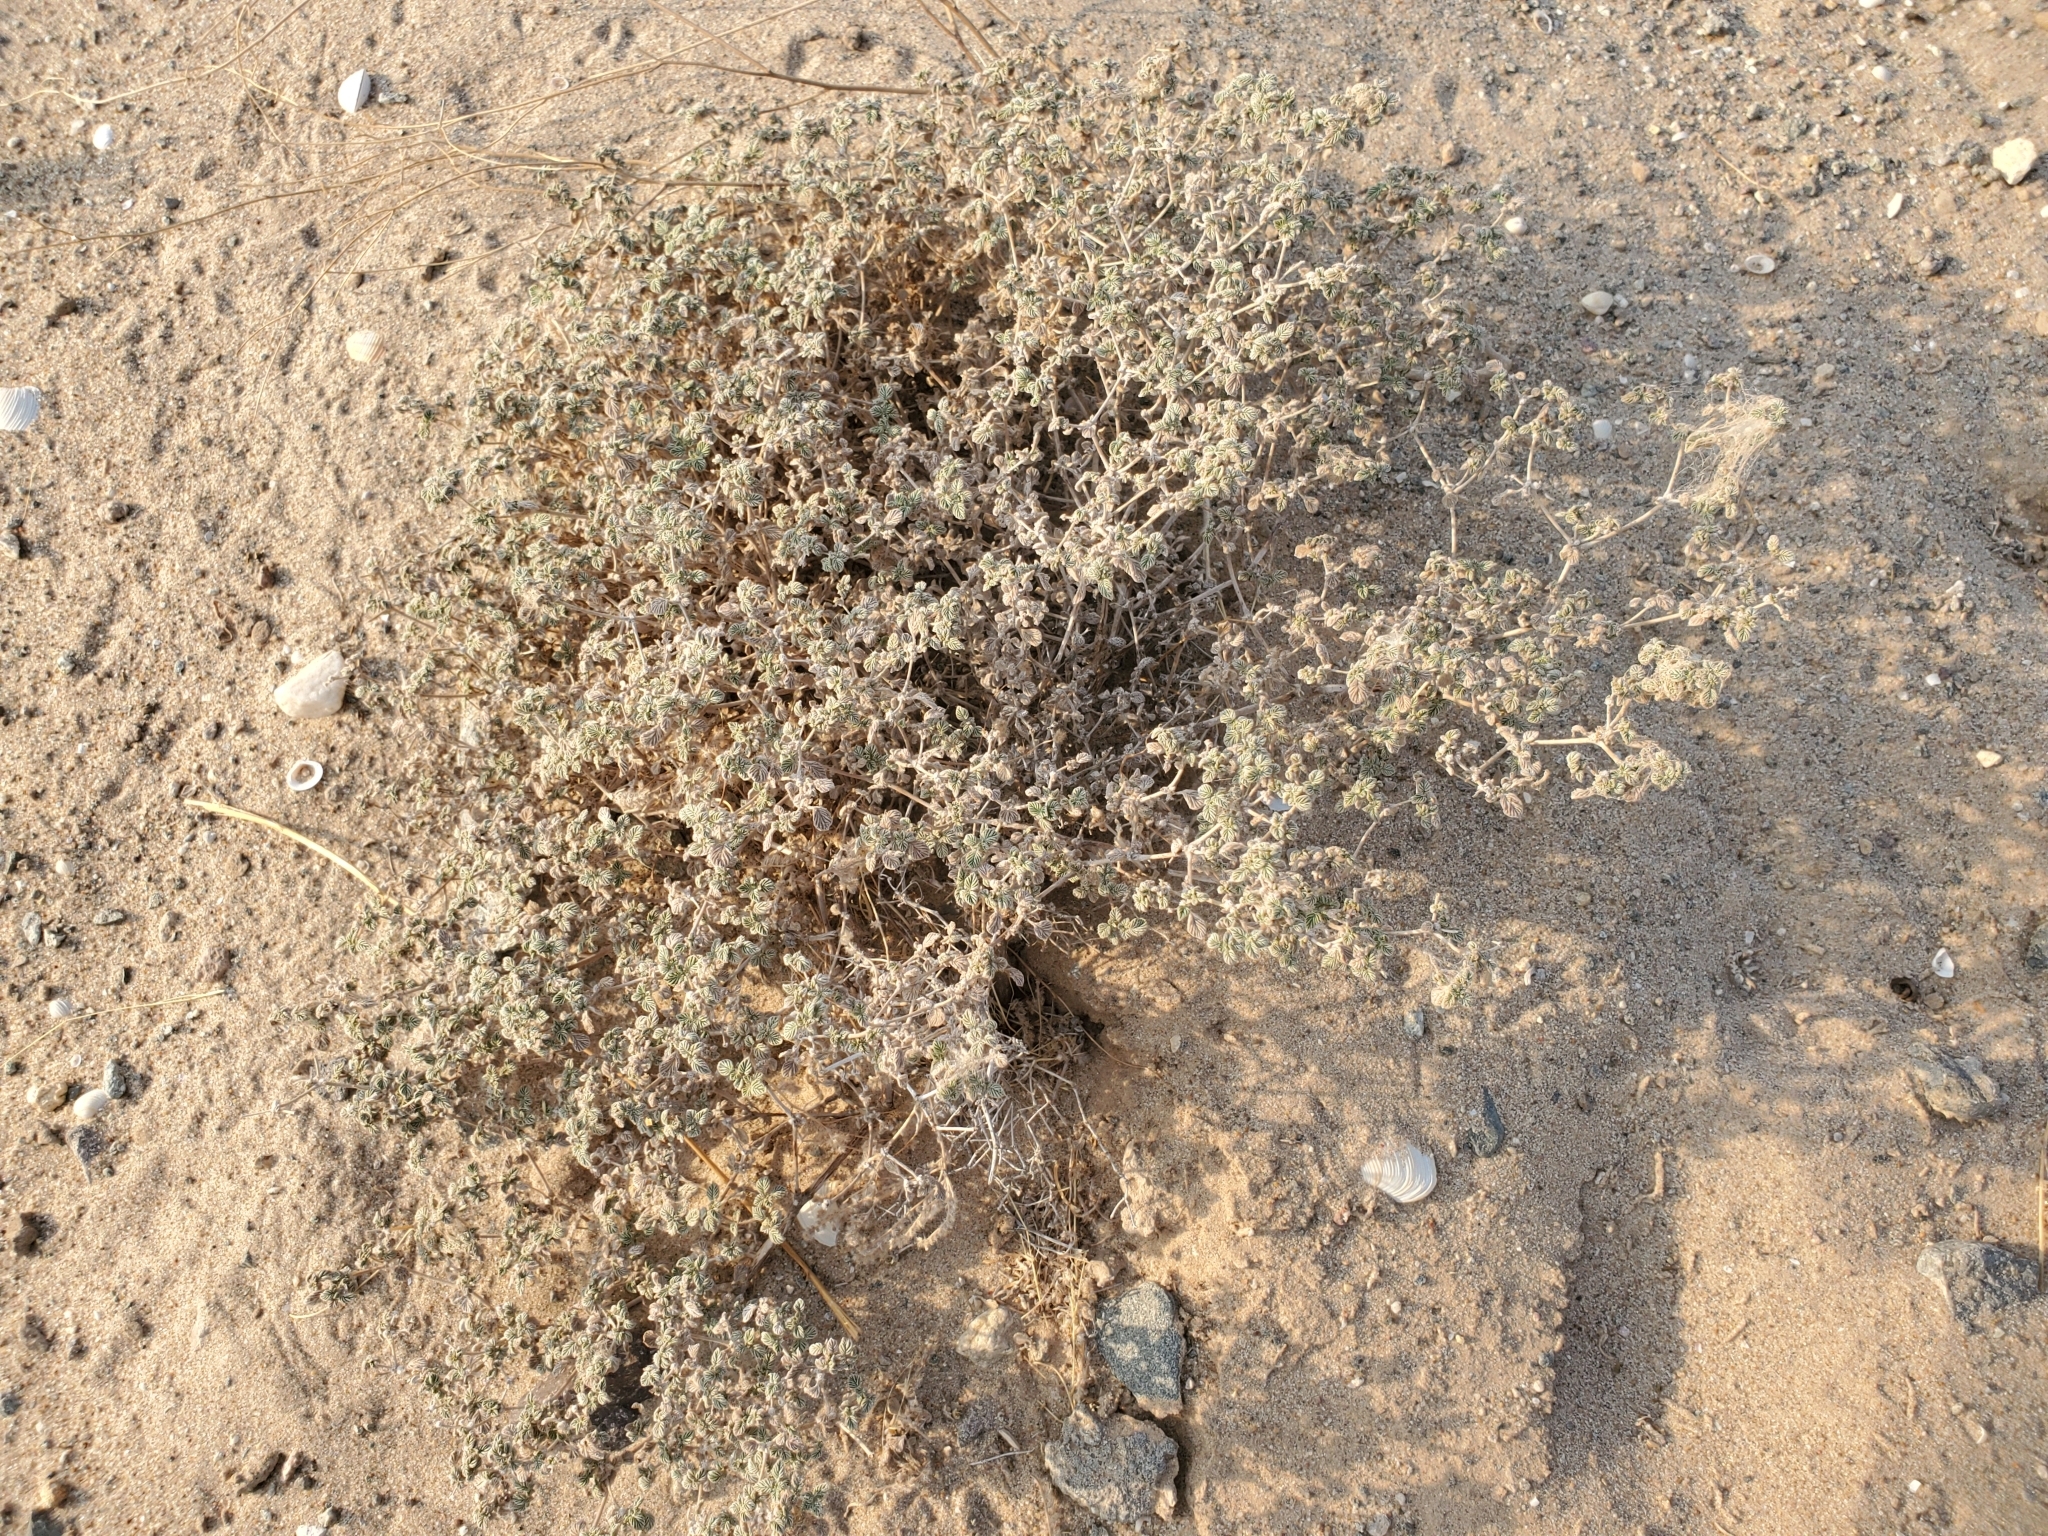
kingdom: Plantae
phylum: Tracheophyta
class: Magnoliopsida
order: Boraginales
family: Ehretiaceae
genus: Tiquilia
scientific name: Tiquilia plicata
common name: Fan-leaf tiquilia
